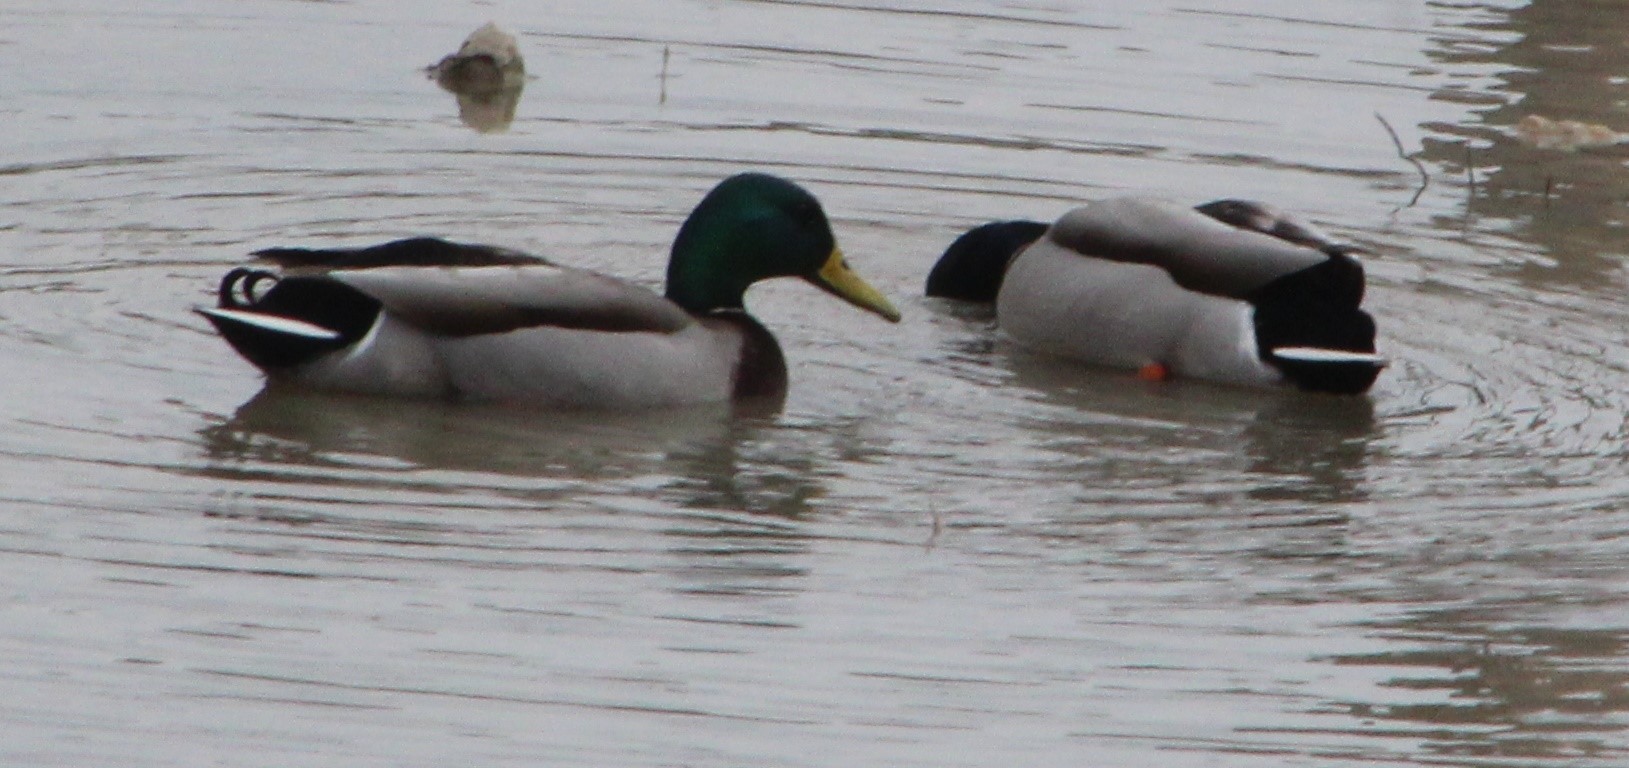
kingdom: Animalia
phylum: Chordata
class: Aves
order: Anseriformes
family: Anatidae
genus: Anas
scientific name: Anas platyrhynchos
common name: Mallard
